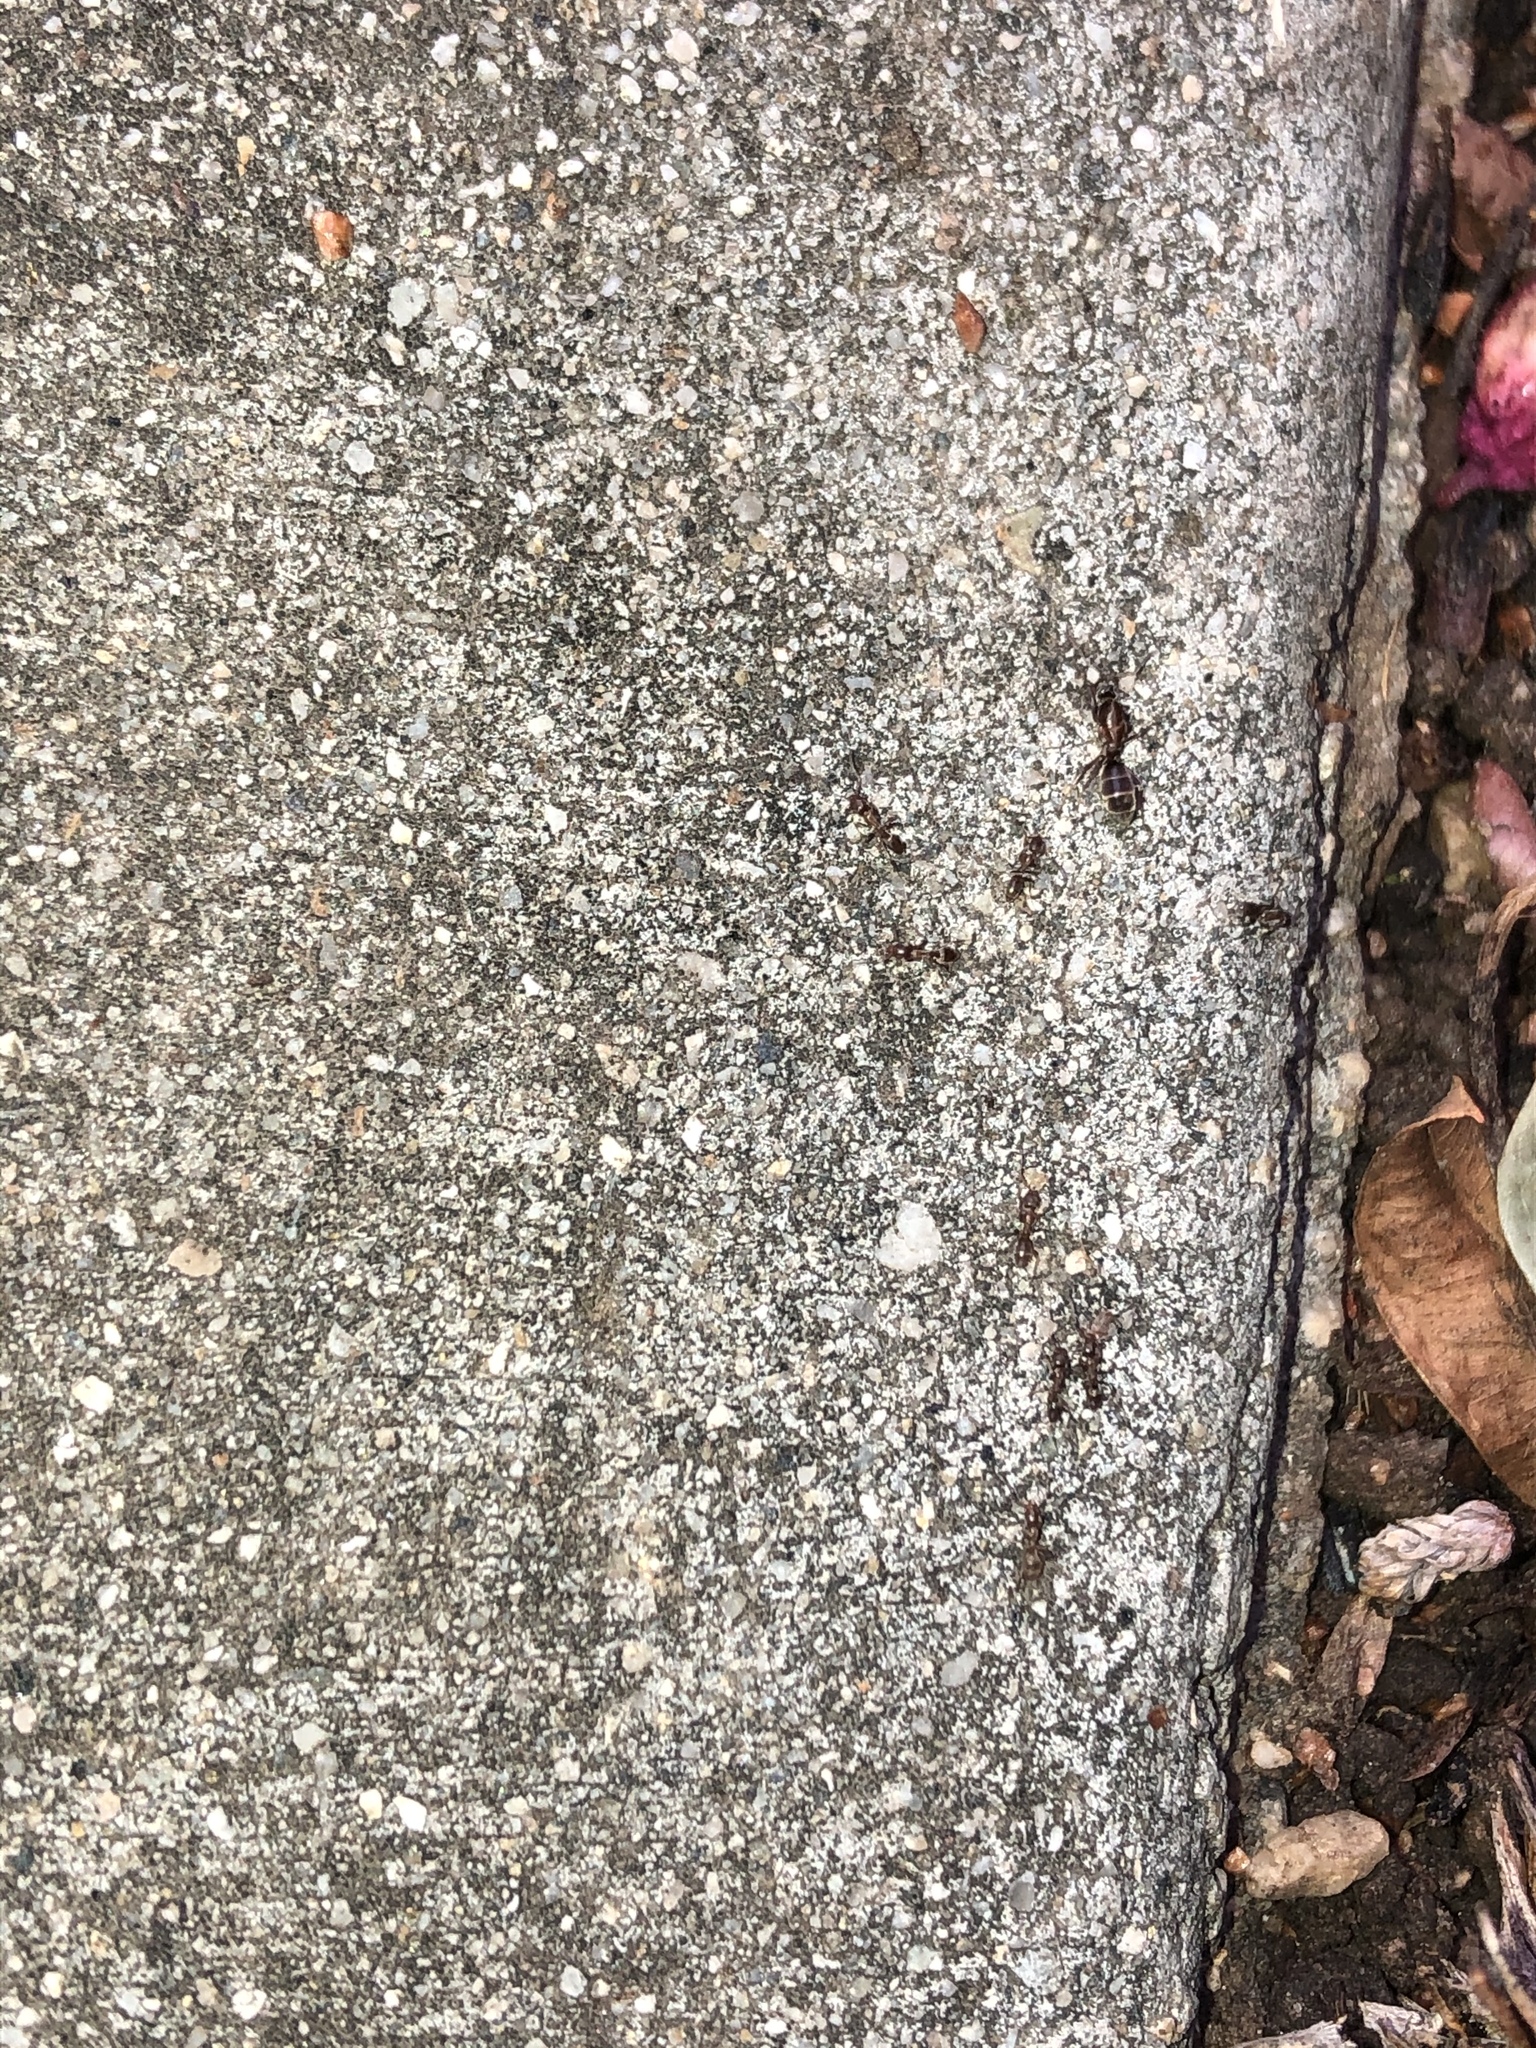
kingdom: Animalia
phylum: Arthropoda
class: Insecta
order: Hymenoptera
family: Formicidae
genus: Linepithema
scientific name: Linepithema humile
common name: Argentine ant
